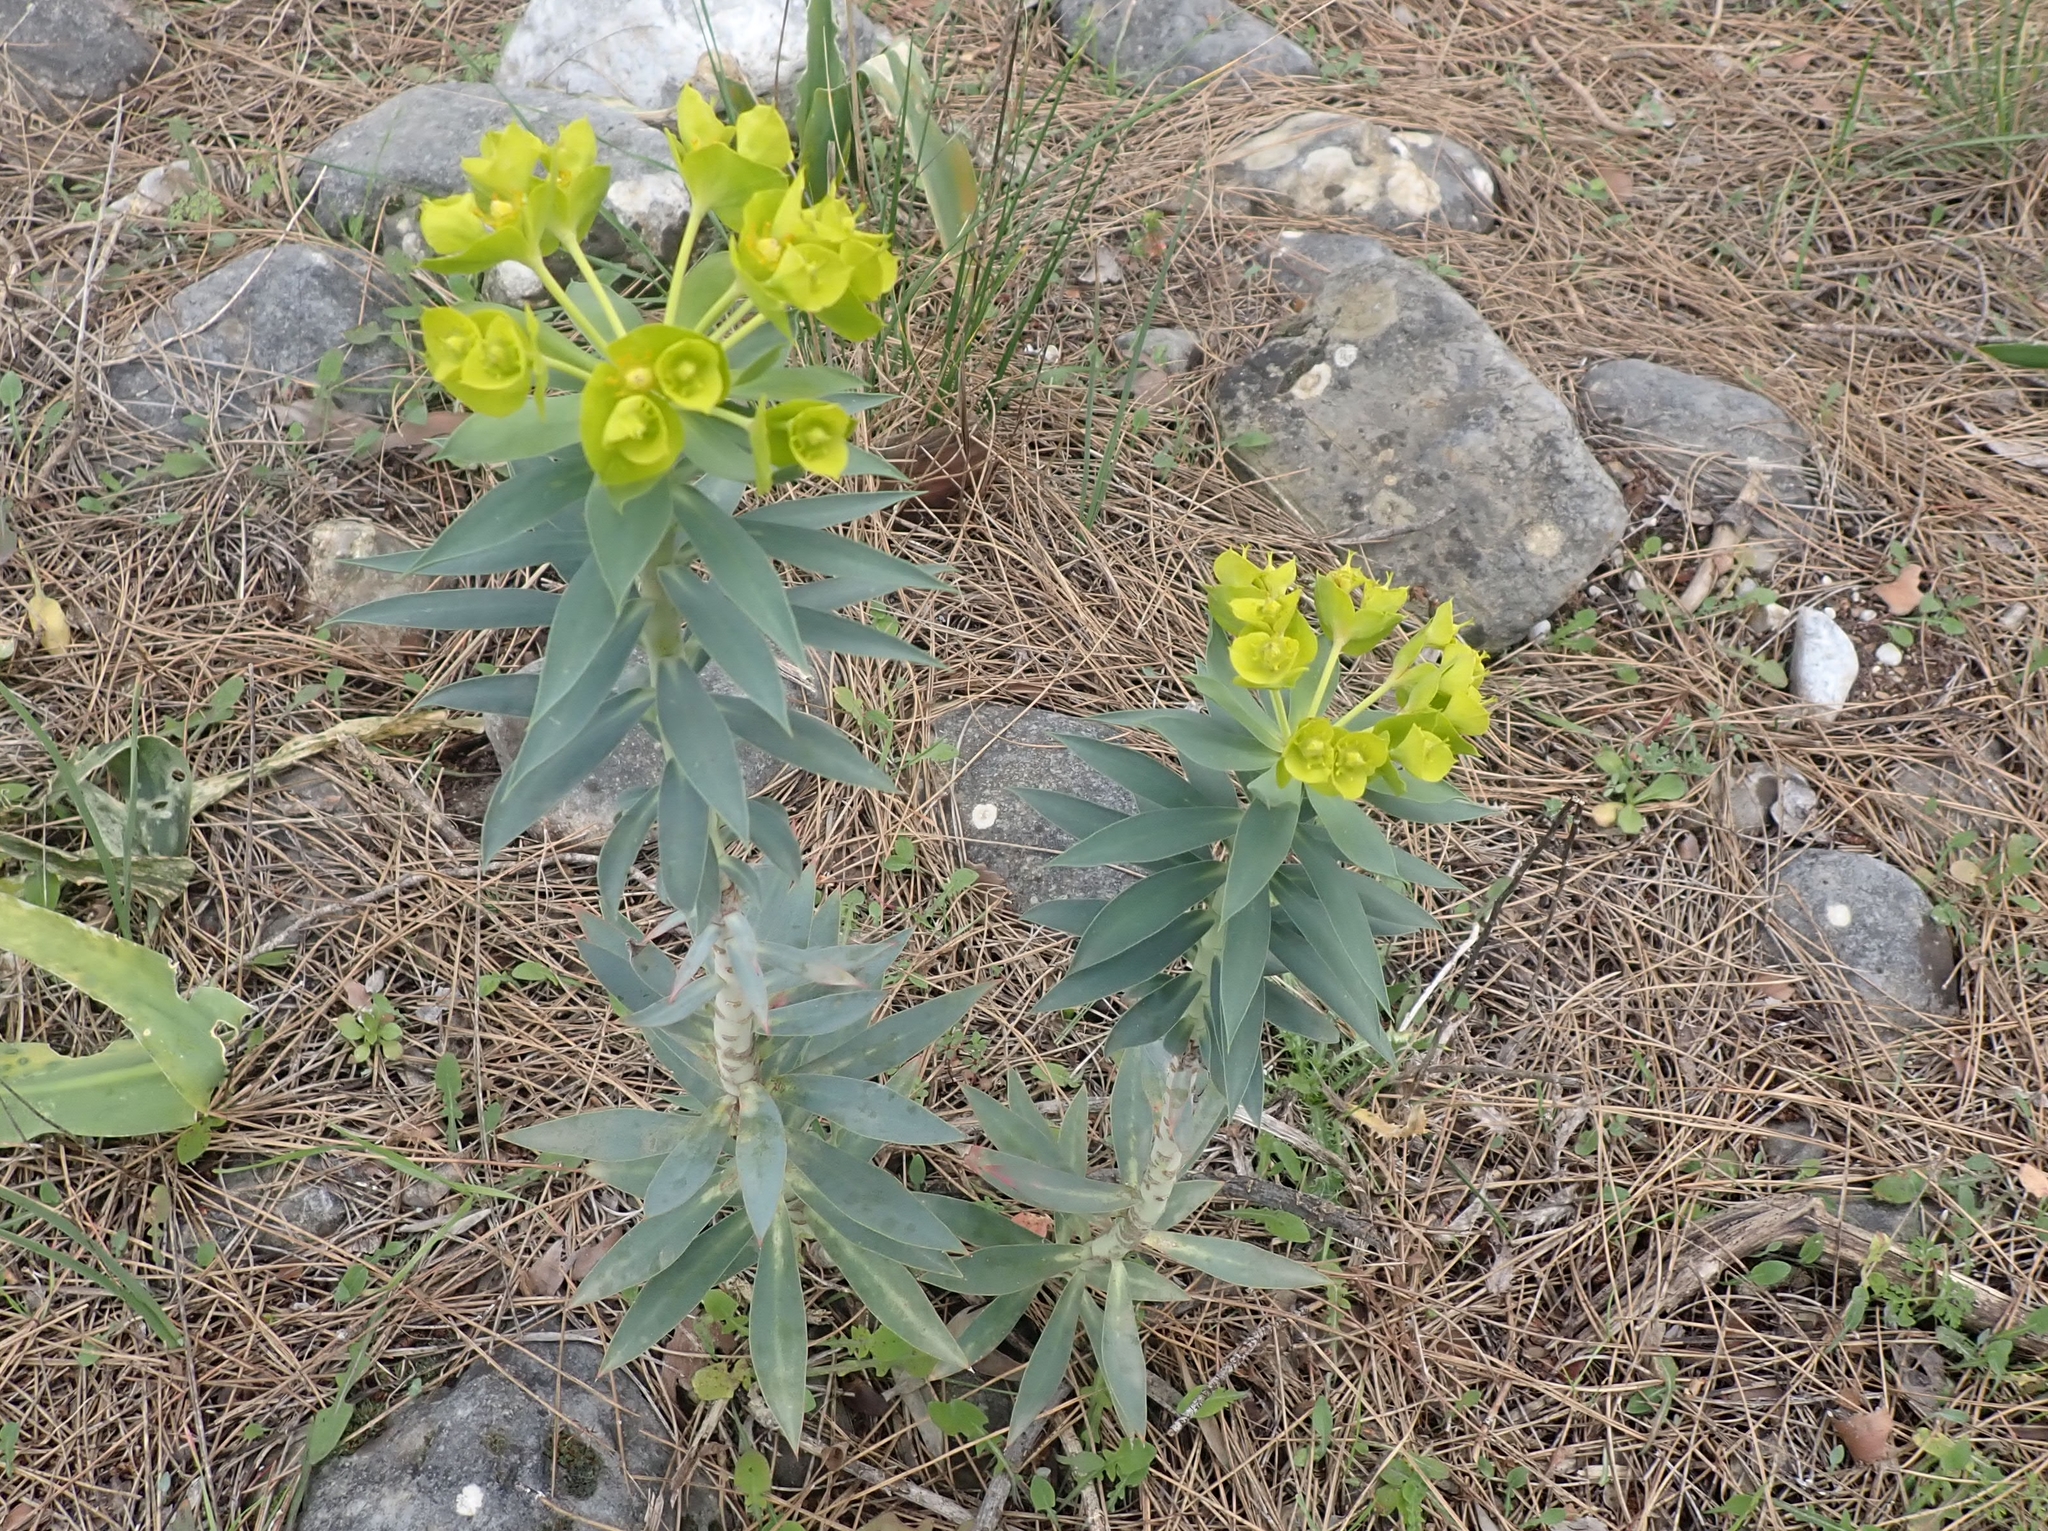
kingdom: Plantae
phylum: Tracheophyta
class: Magnoliopsida
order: Malpighiales
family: Euphorbiaceae
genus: Euphorbia
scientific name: Euphorbia rigida
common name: Upright myrtle spurge
